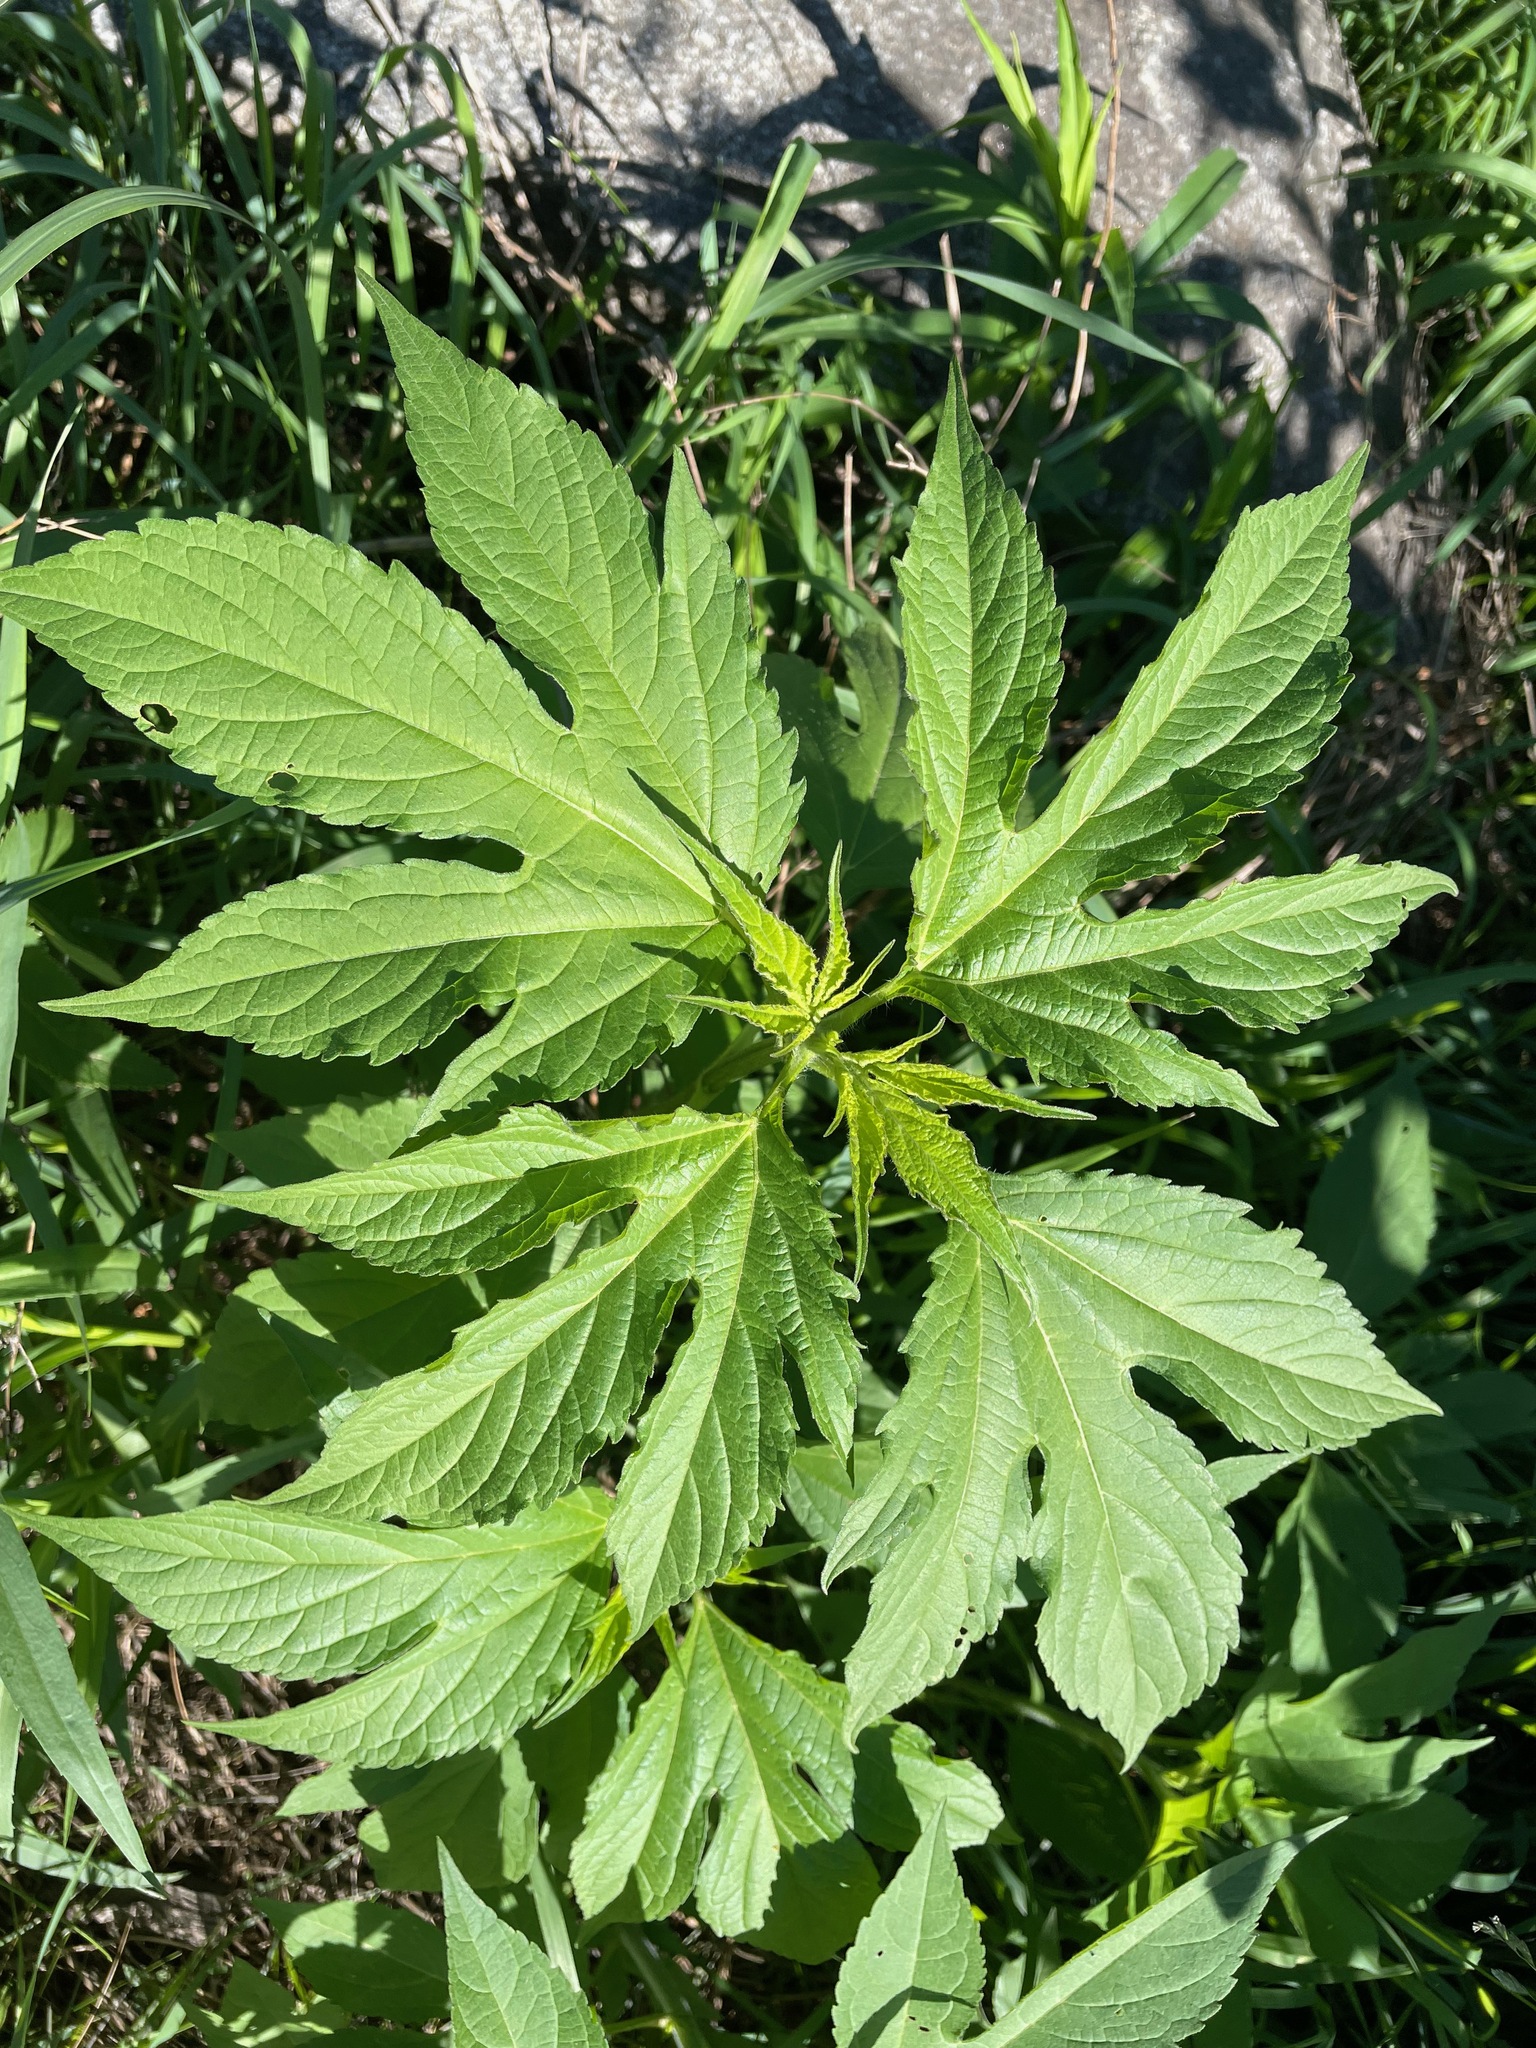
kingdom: Plantae
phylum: Tracheophyta
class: Magnoliopsida
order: Asterales
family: Asteraceae
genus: Ambrosia
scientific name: Ambrosia trifida
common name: Giant ragweed
